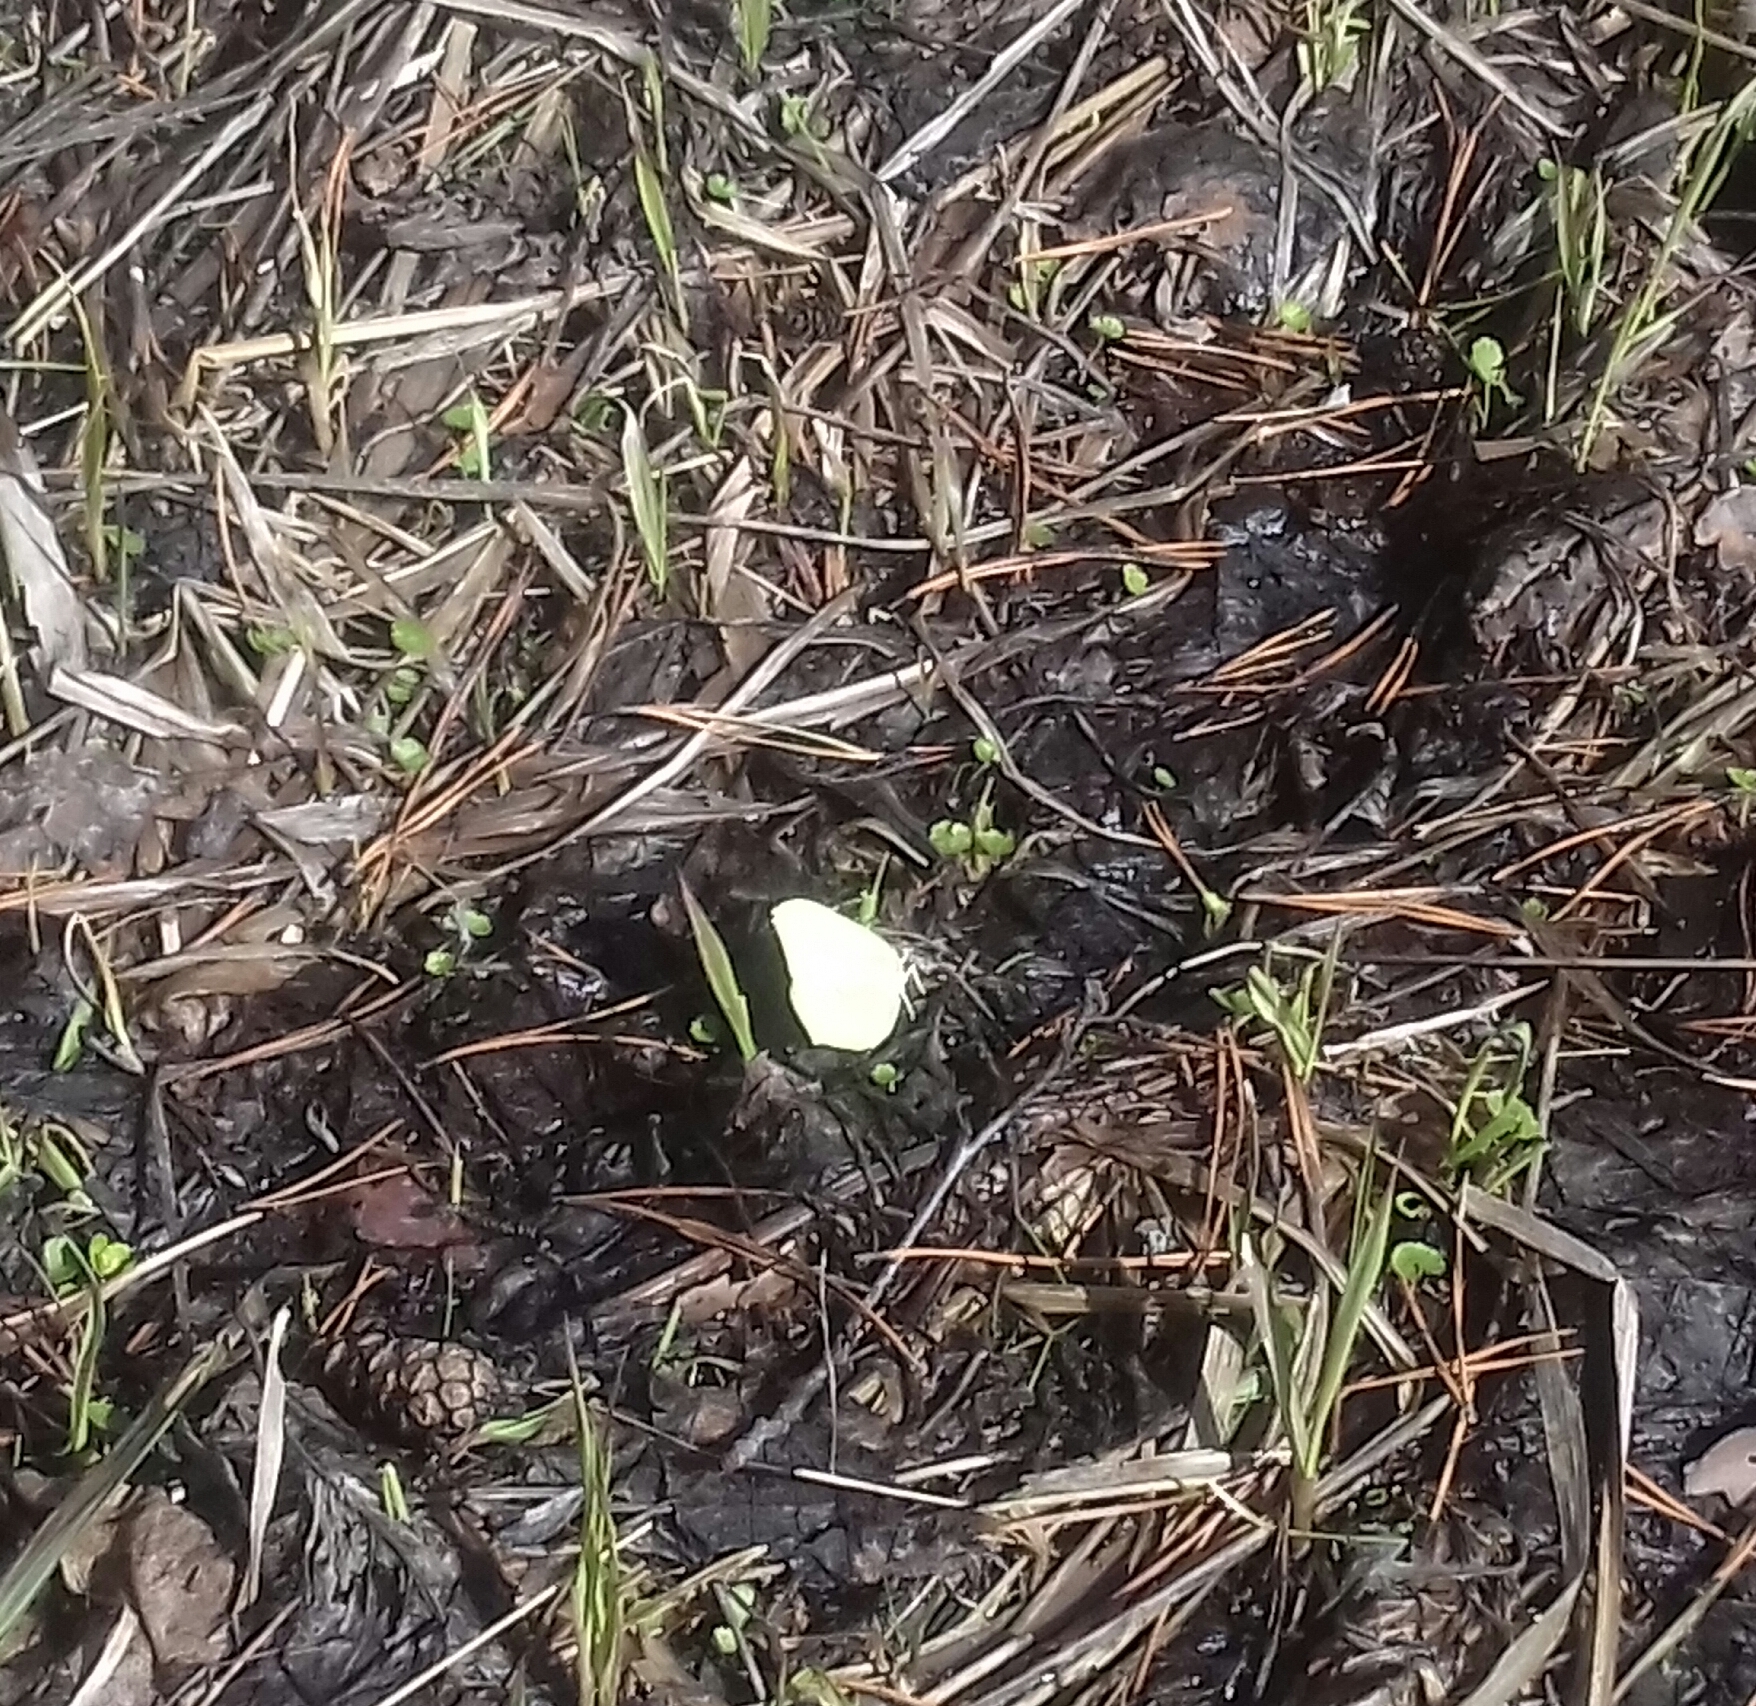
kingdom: Animalia
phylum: Arthropoda
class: Insecta
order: Lepidoptera
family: Pieridae
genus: Gonepteryx
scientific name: Gonepteryx rhamni
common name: Brimstone
